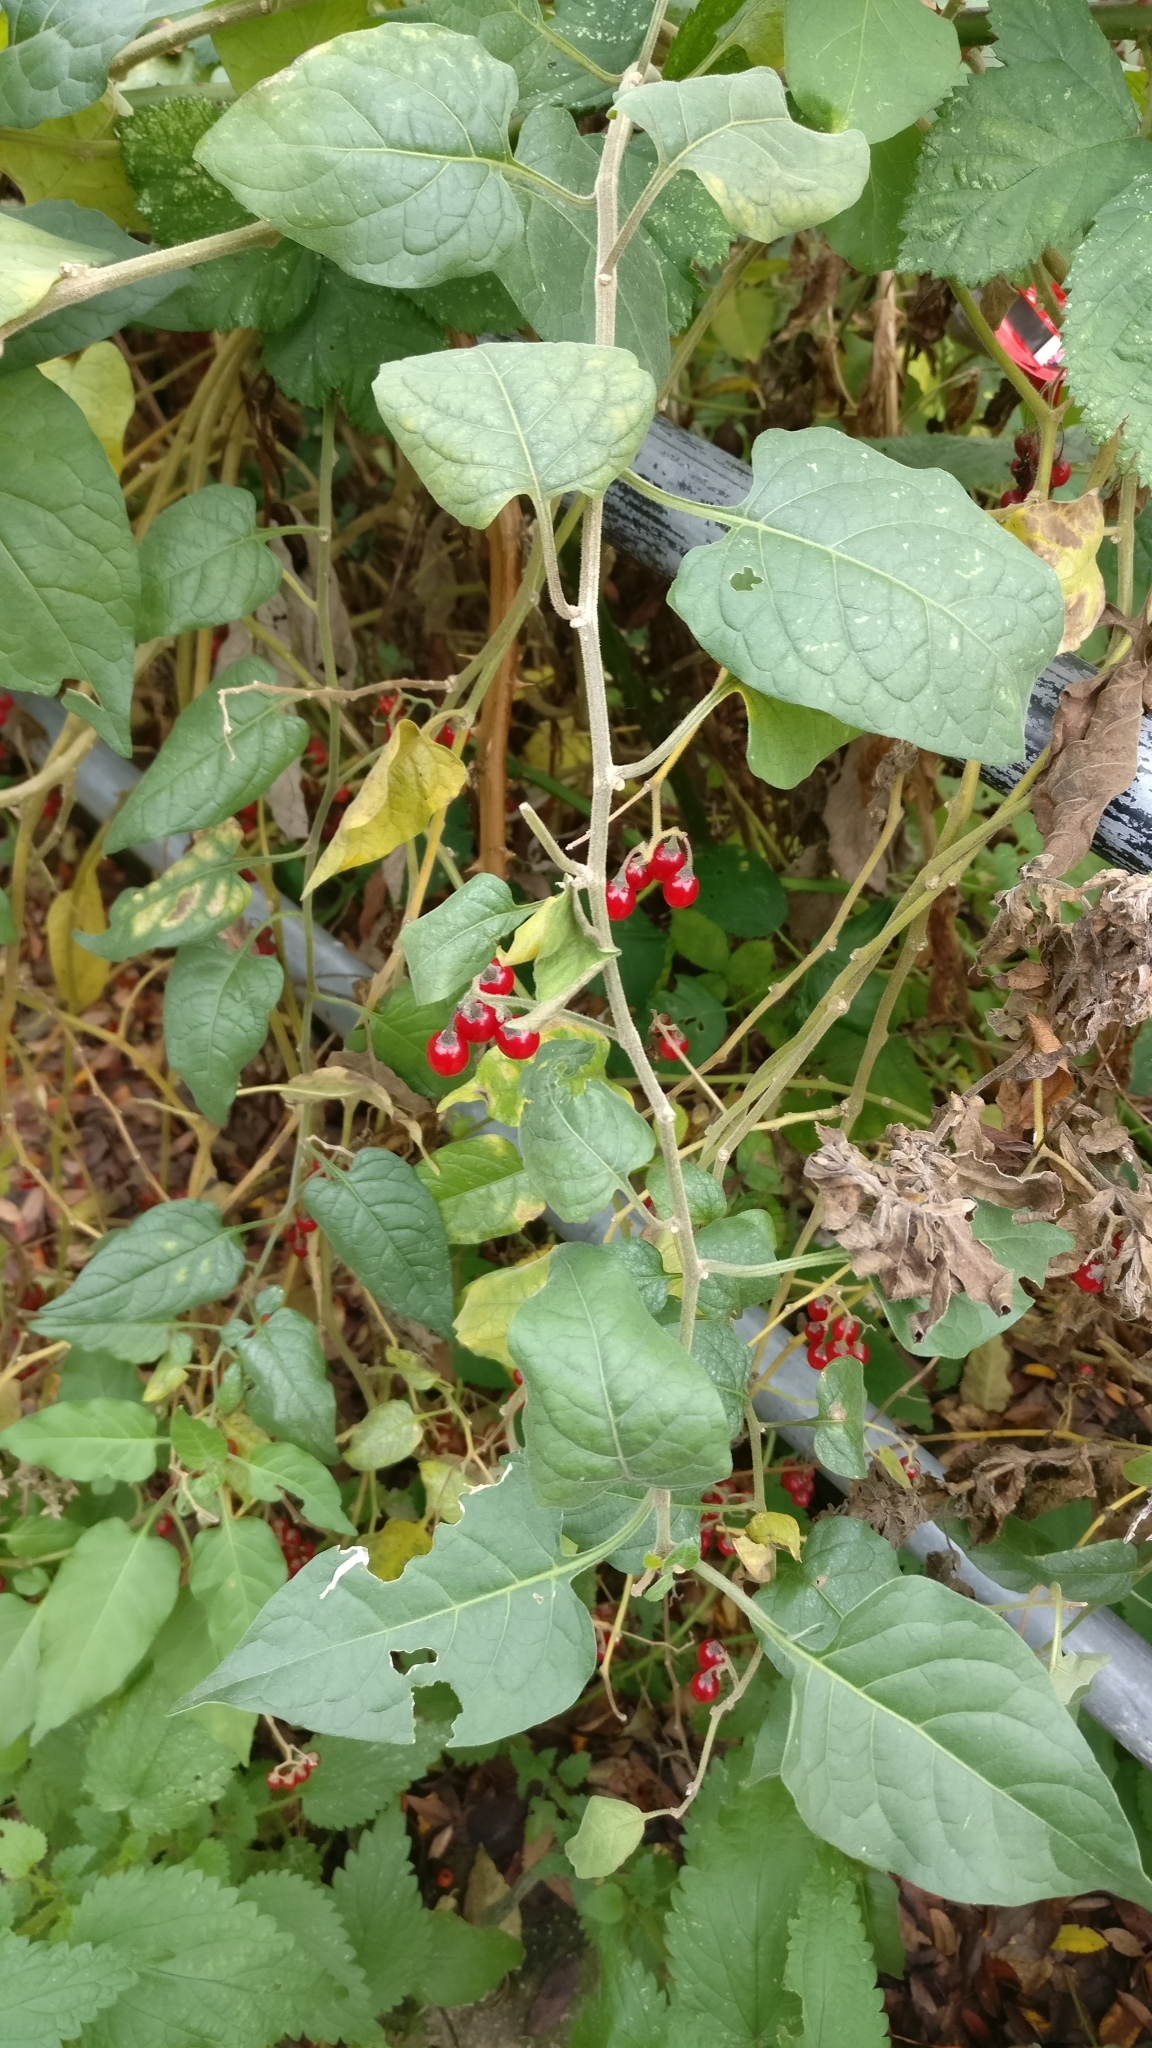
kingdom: Plantae
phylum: Tracheophyta
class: Magnoliopsida
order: Solanales
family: Solanaceae
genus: Solanum
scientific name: Solanum dulcamara
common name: Climbing nightshade
